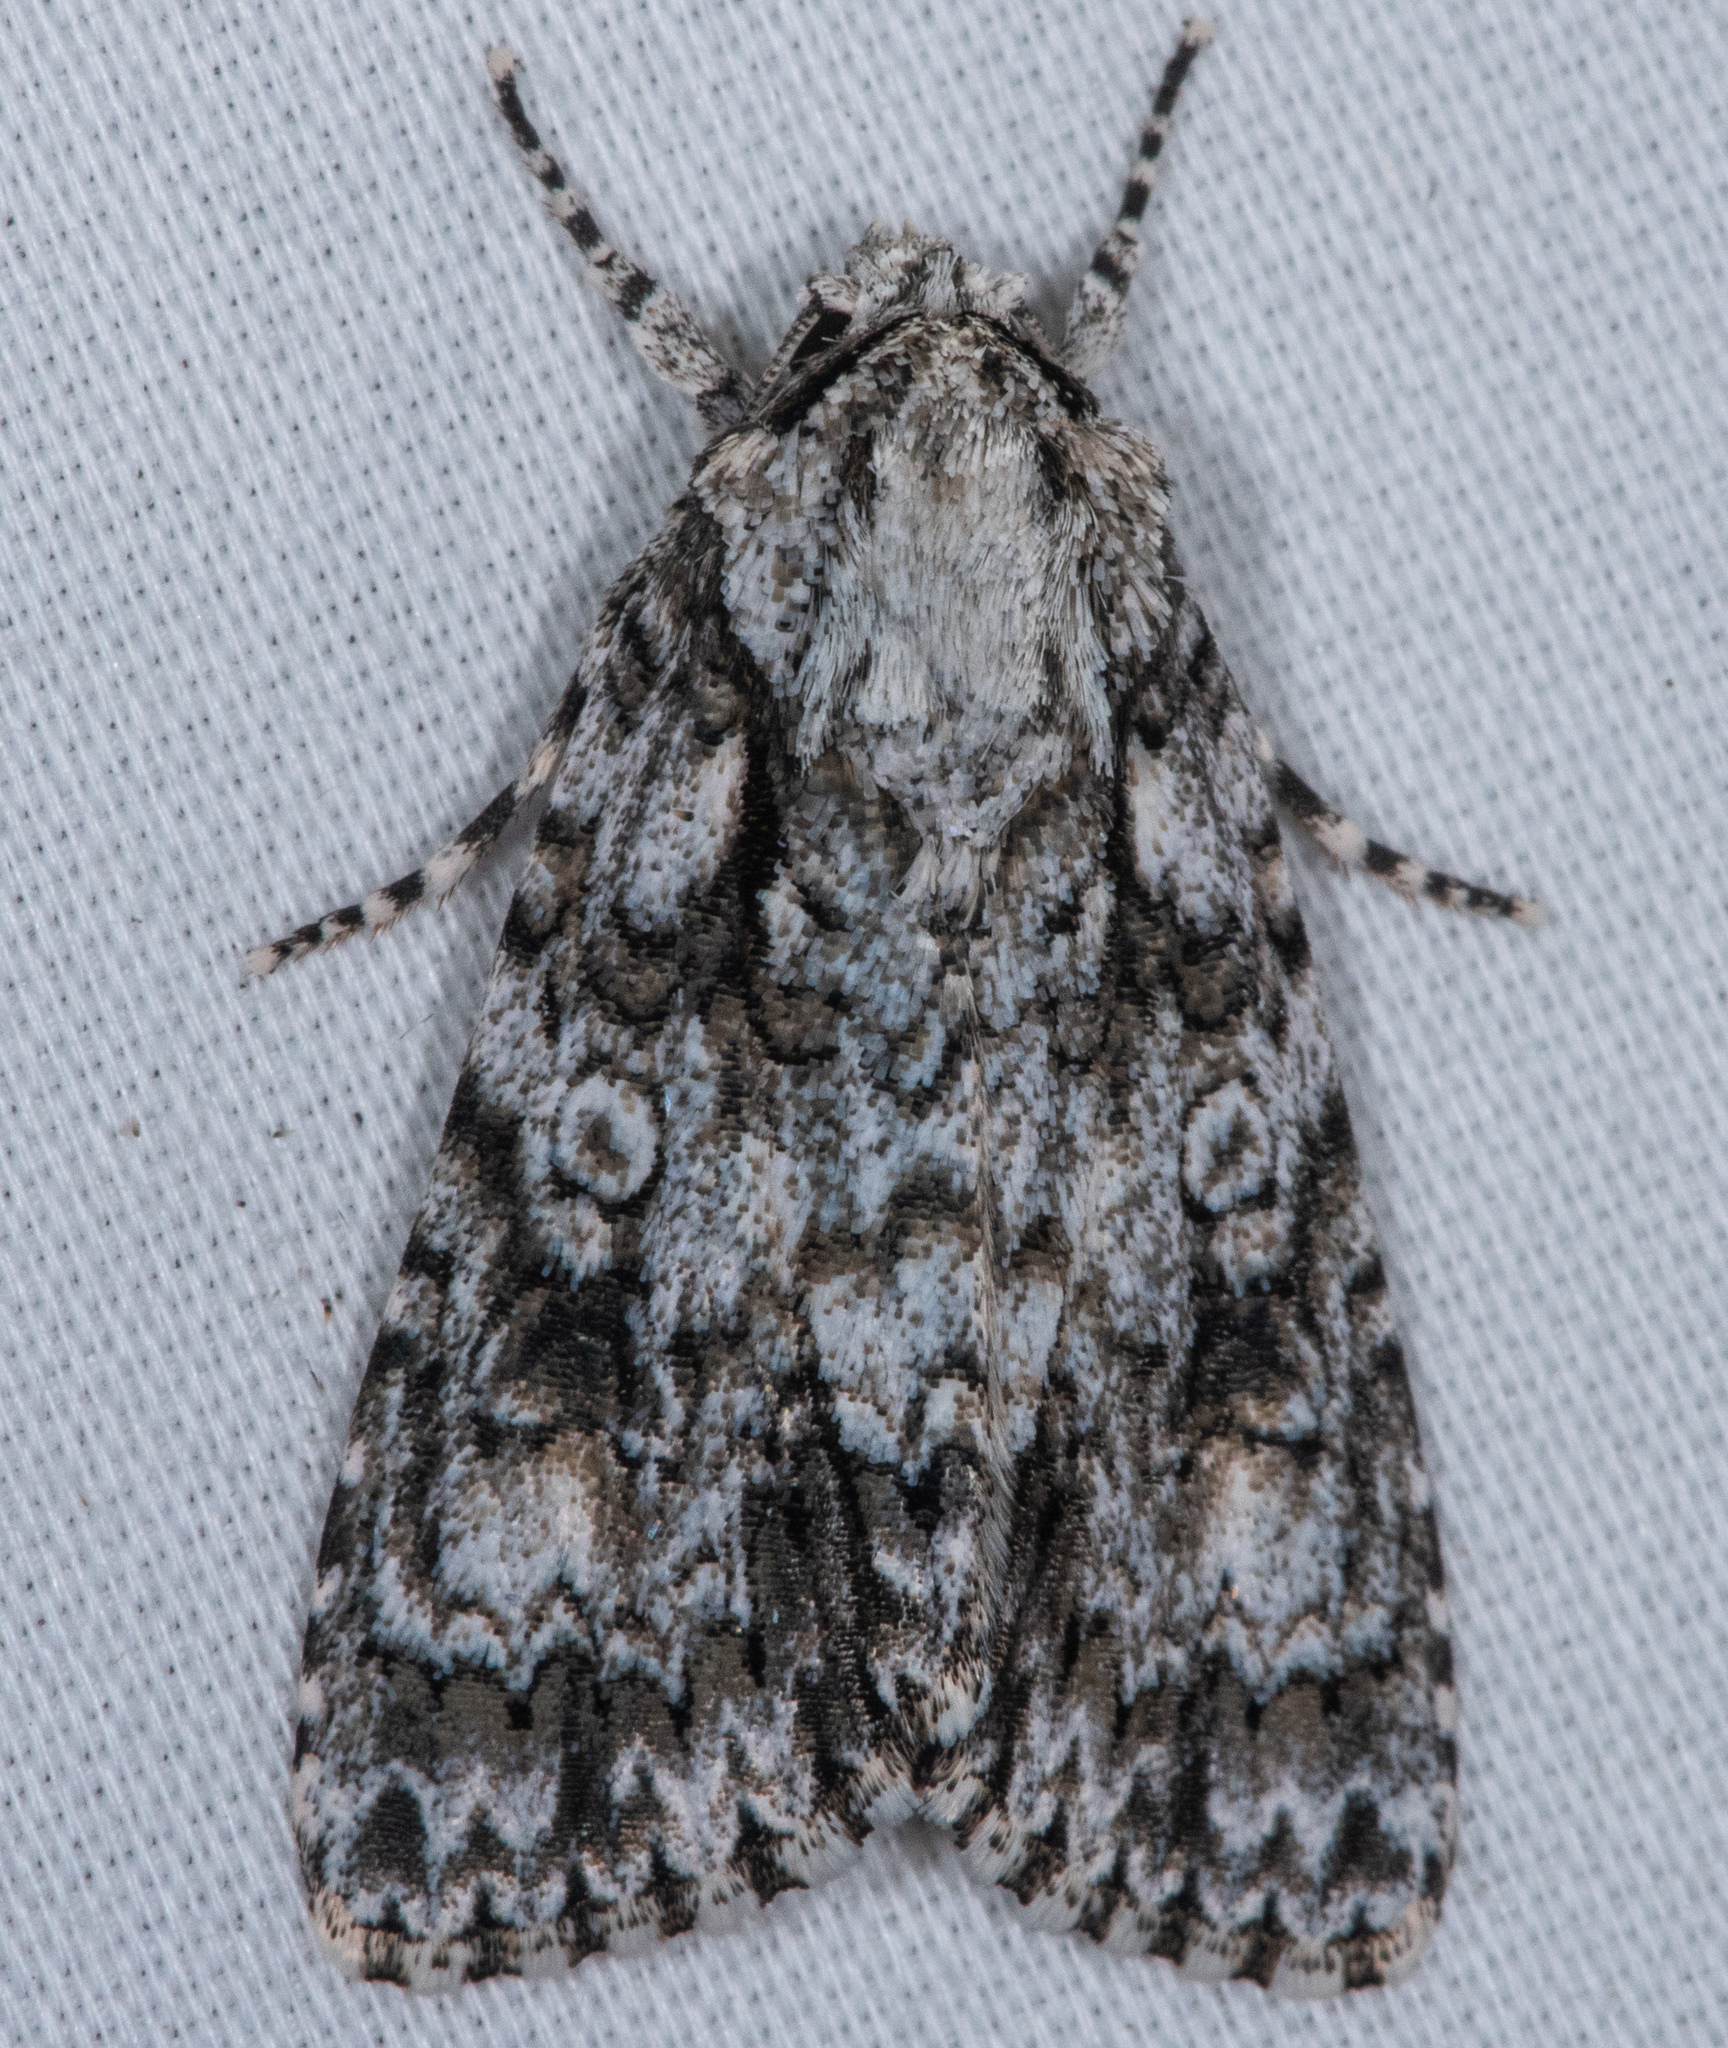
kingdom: Animalia
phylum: Arthropoda
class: Insecta
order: Lepidoptera
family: Noctuidae
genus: Acronicta
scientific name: Acronicta marmorata
